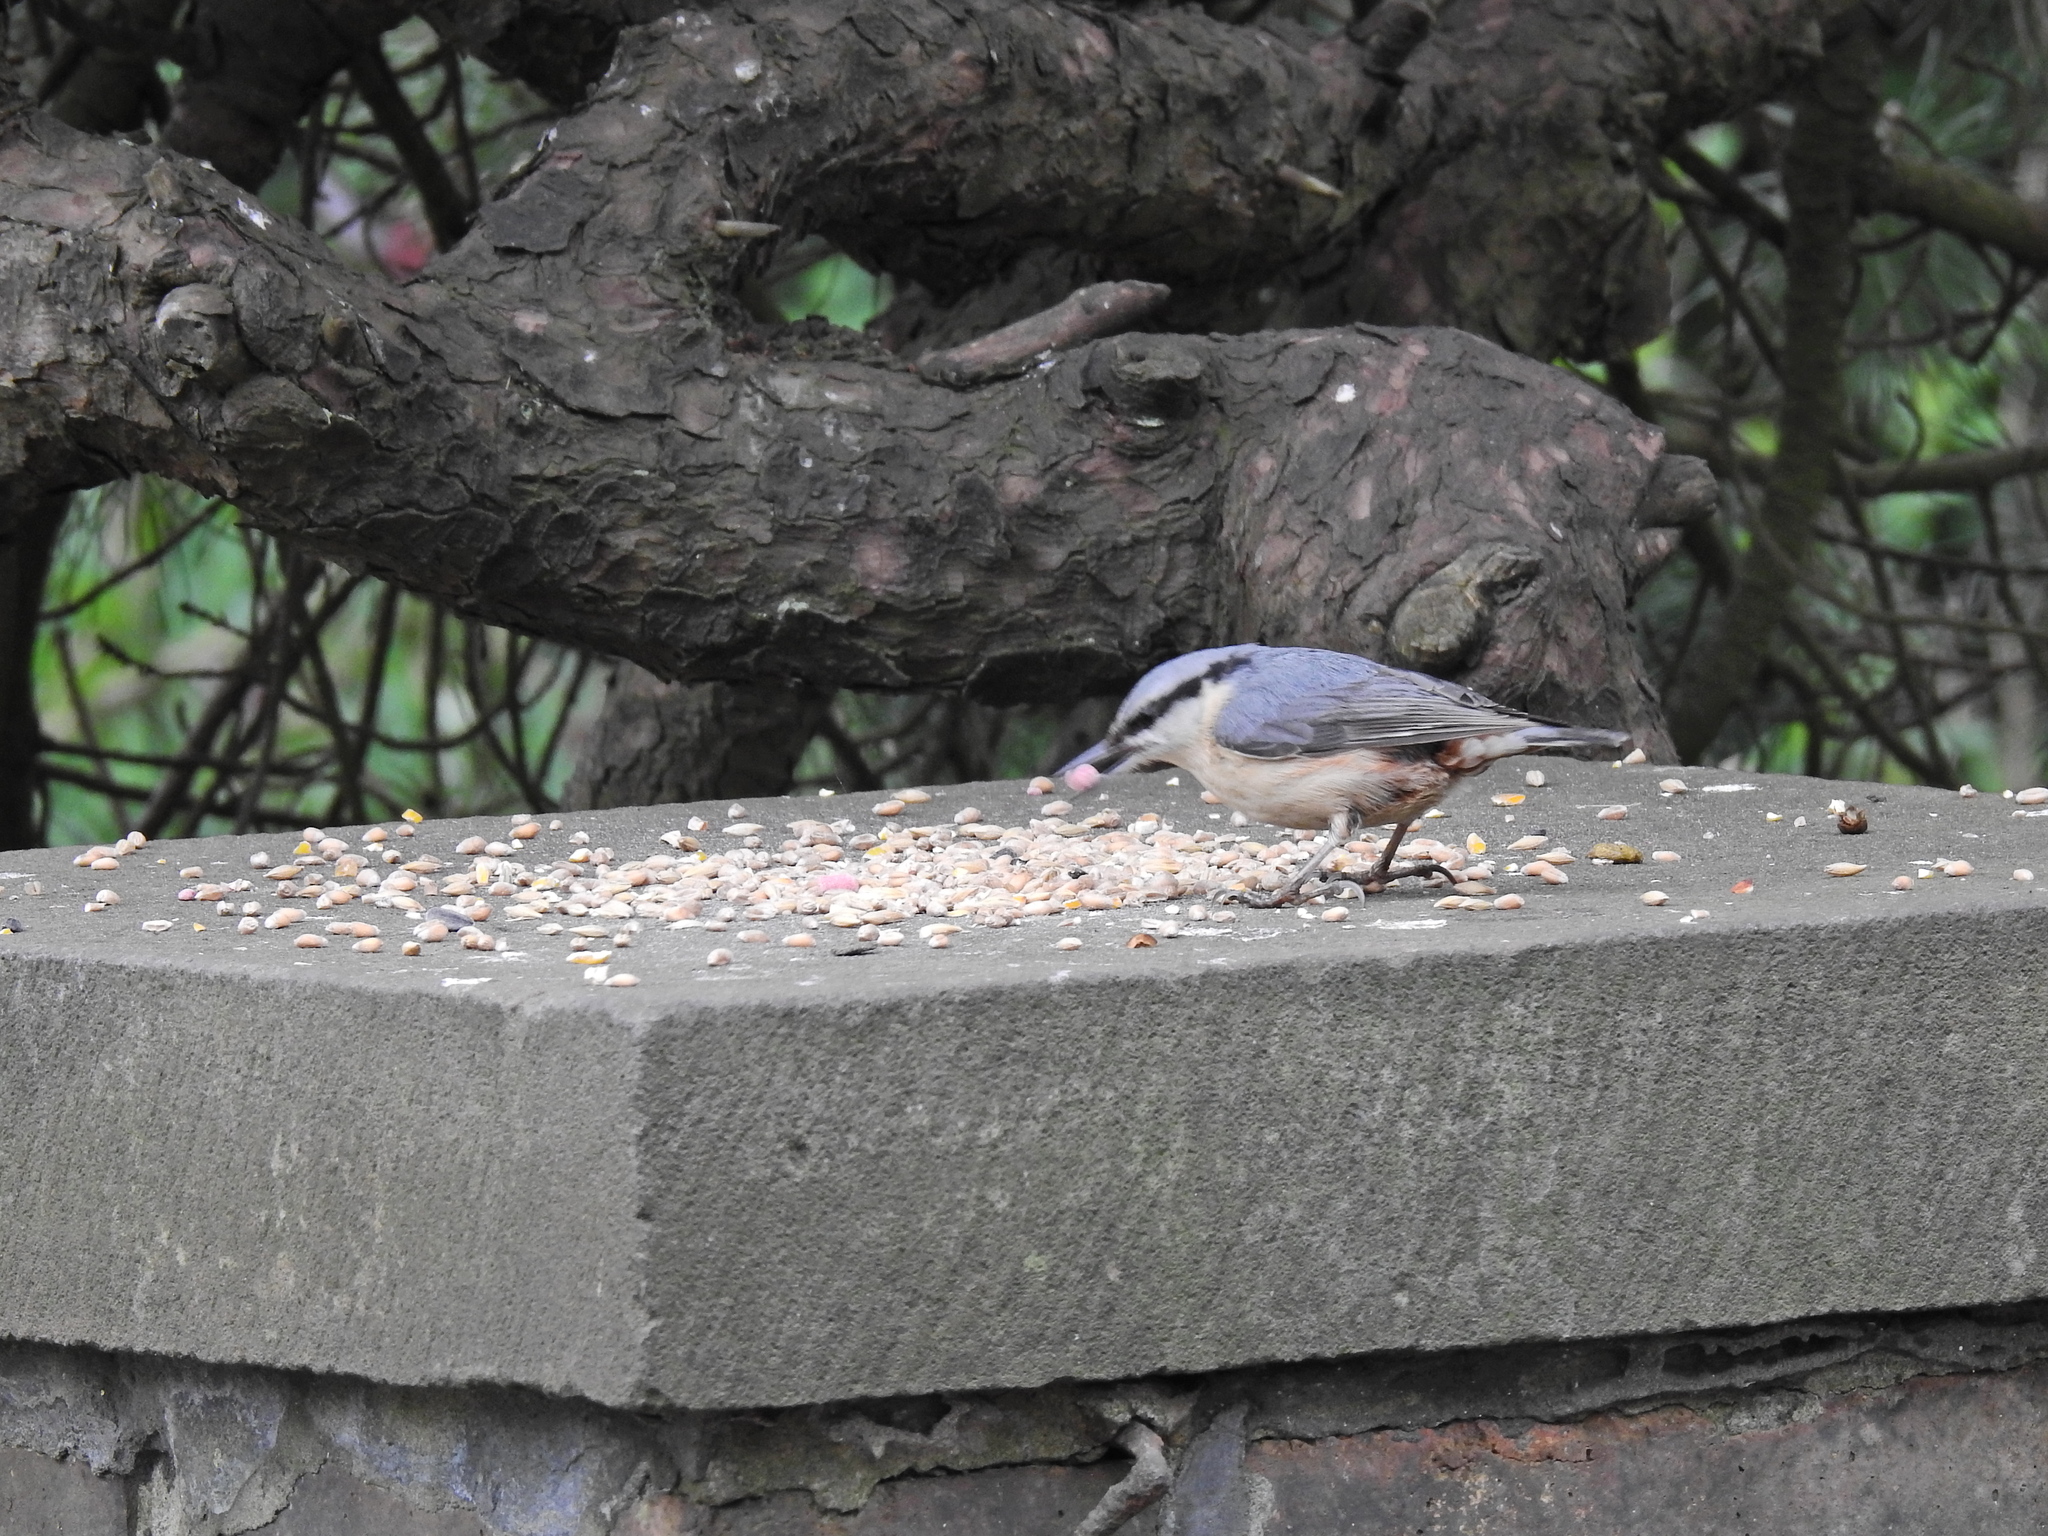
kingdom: Animalia
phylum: Chordata
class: Aves
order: Passeriformes
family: Sittidae
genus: Sitta
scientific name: Sitta europaea
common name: Eurasian nuthatch
